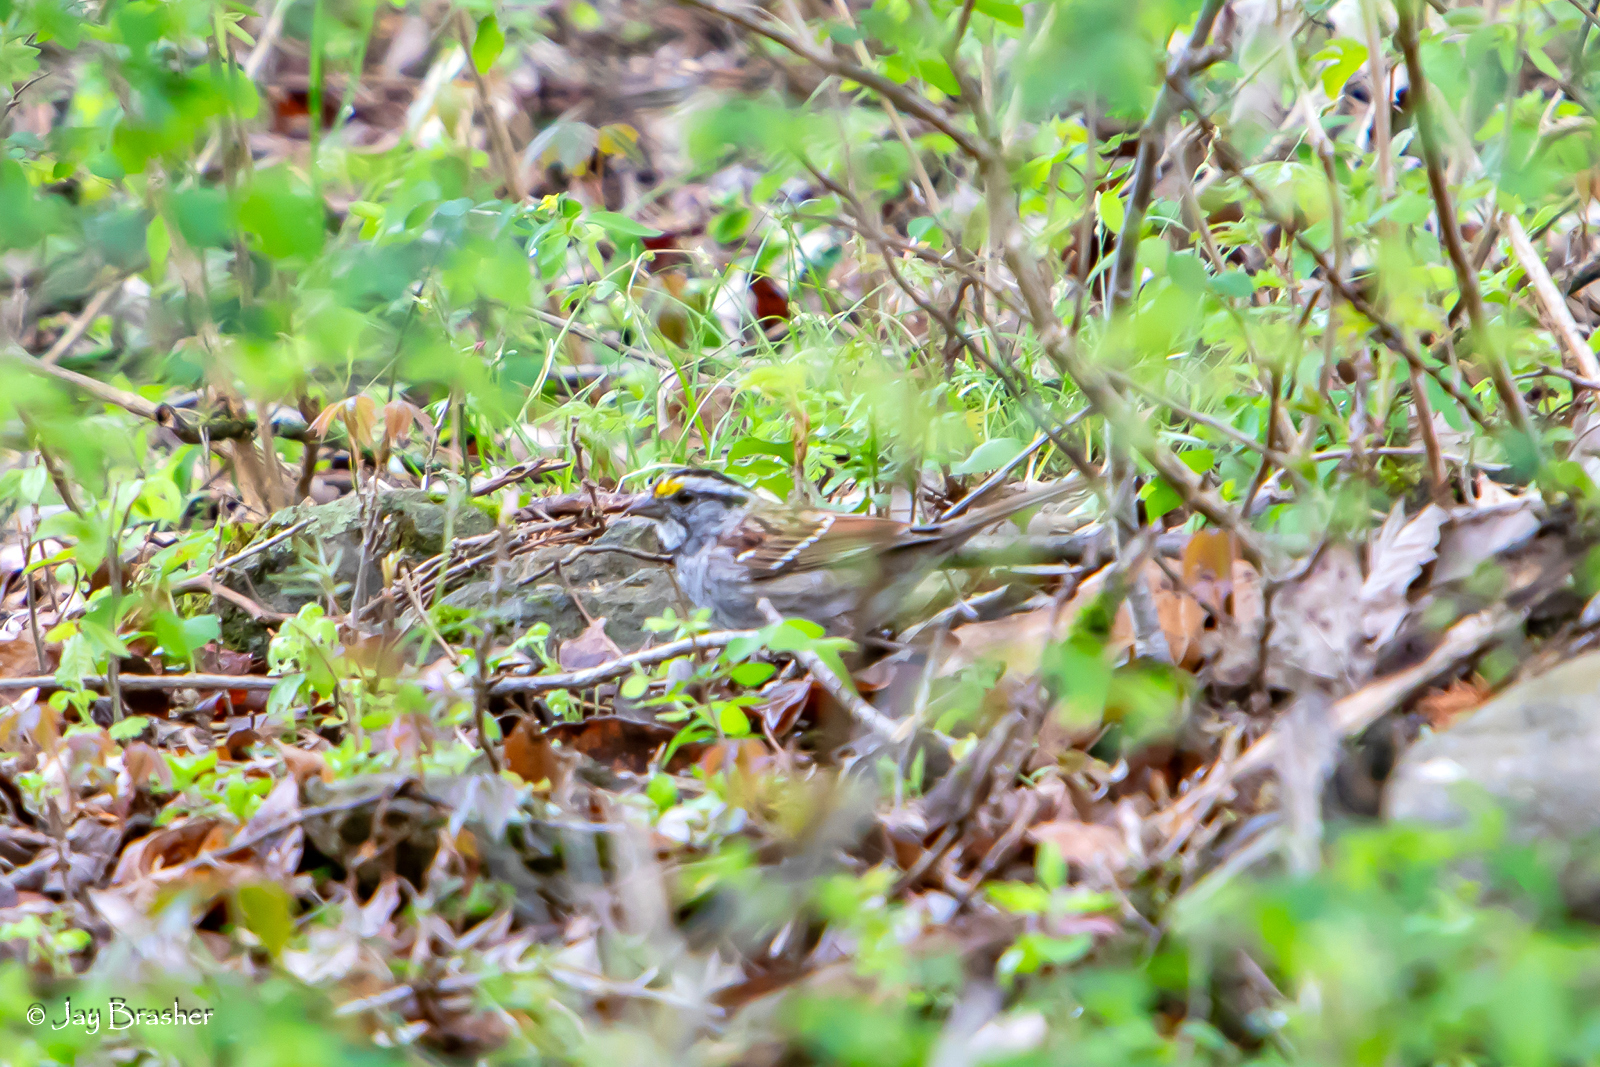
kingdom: Animalia
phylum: Chordata
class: Aves
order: Passeriformes
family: Passerellidae
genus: Zonotrichia
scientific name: Zonotrichia albicollis
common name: White-throated sparrow
